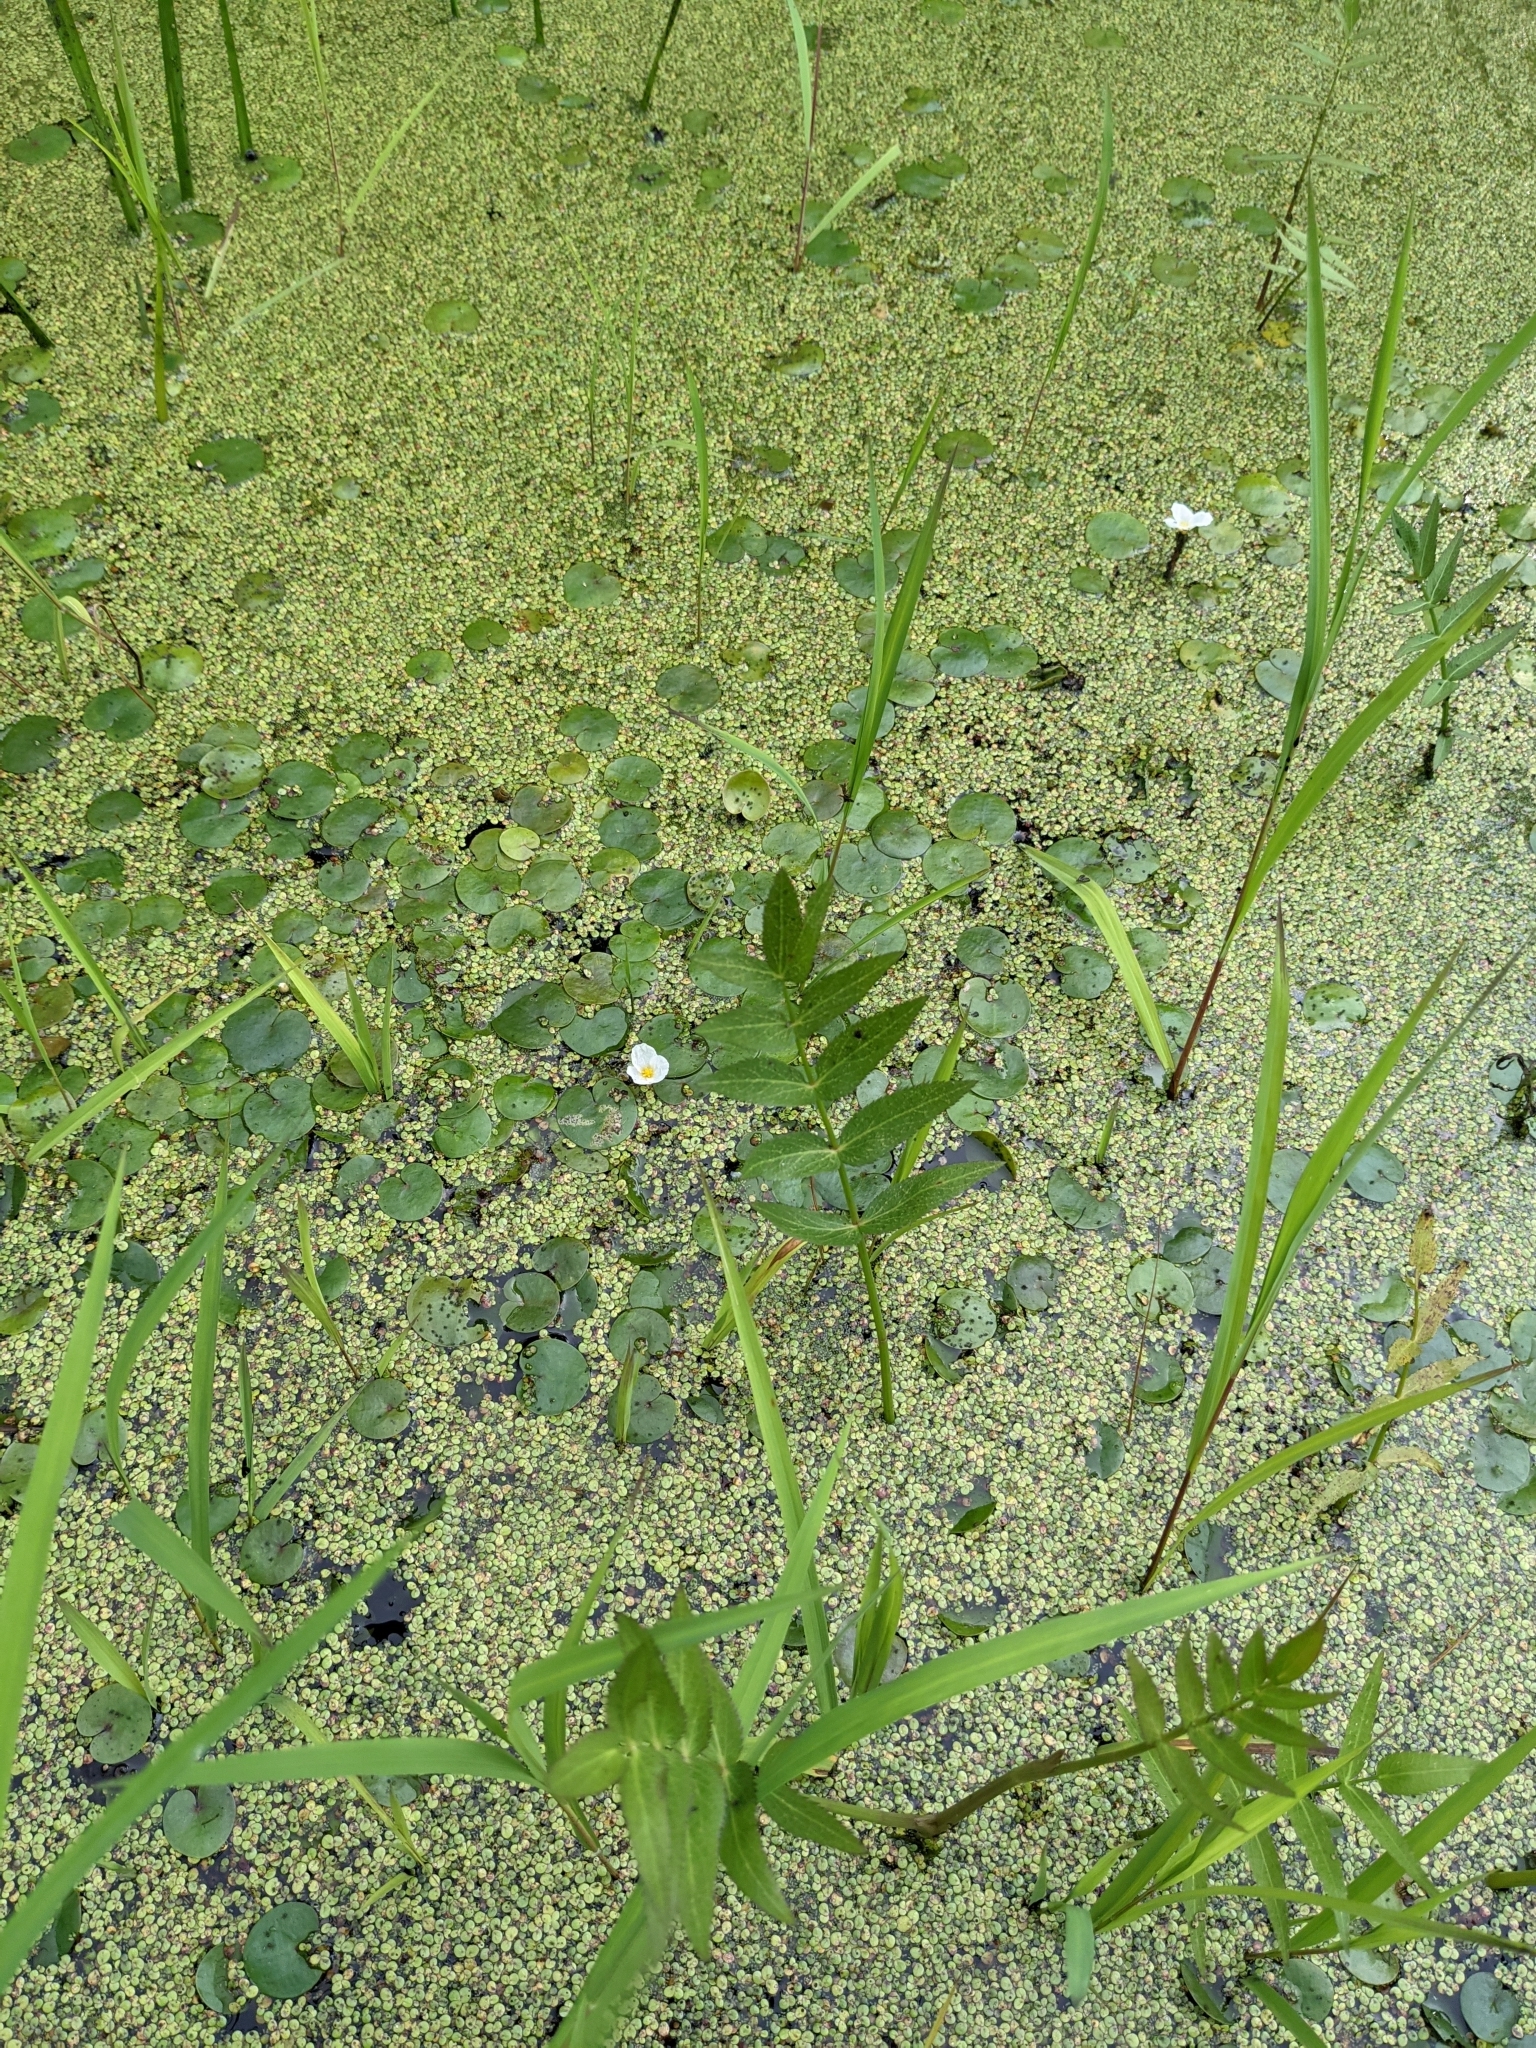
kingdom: Plantae
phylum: Tracheophyta
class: Liliopsida
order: Alismatales
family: Hydrocharitaceae
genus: Hydrocharis
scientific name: Hydrocharis morsus-ranae
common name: Frogbit
